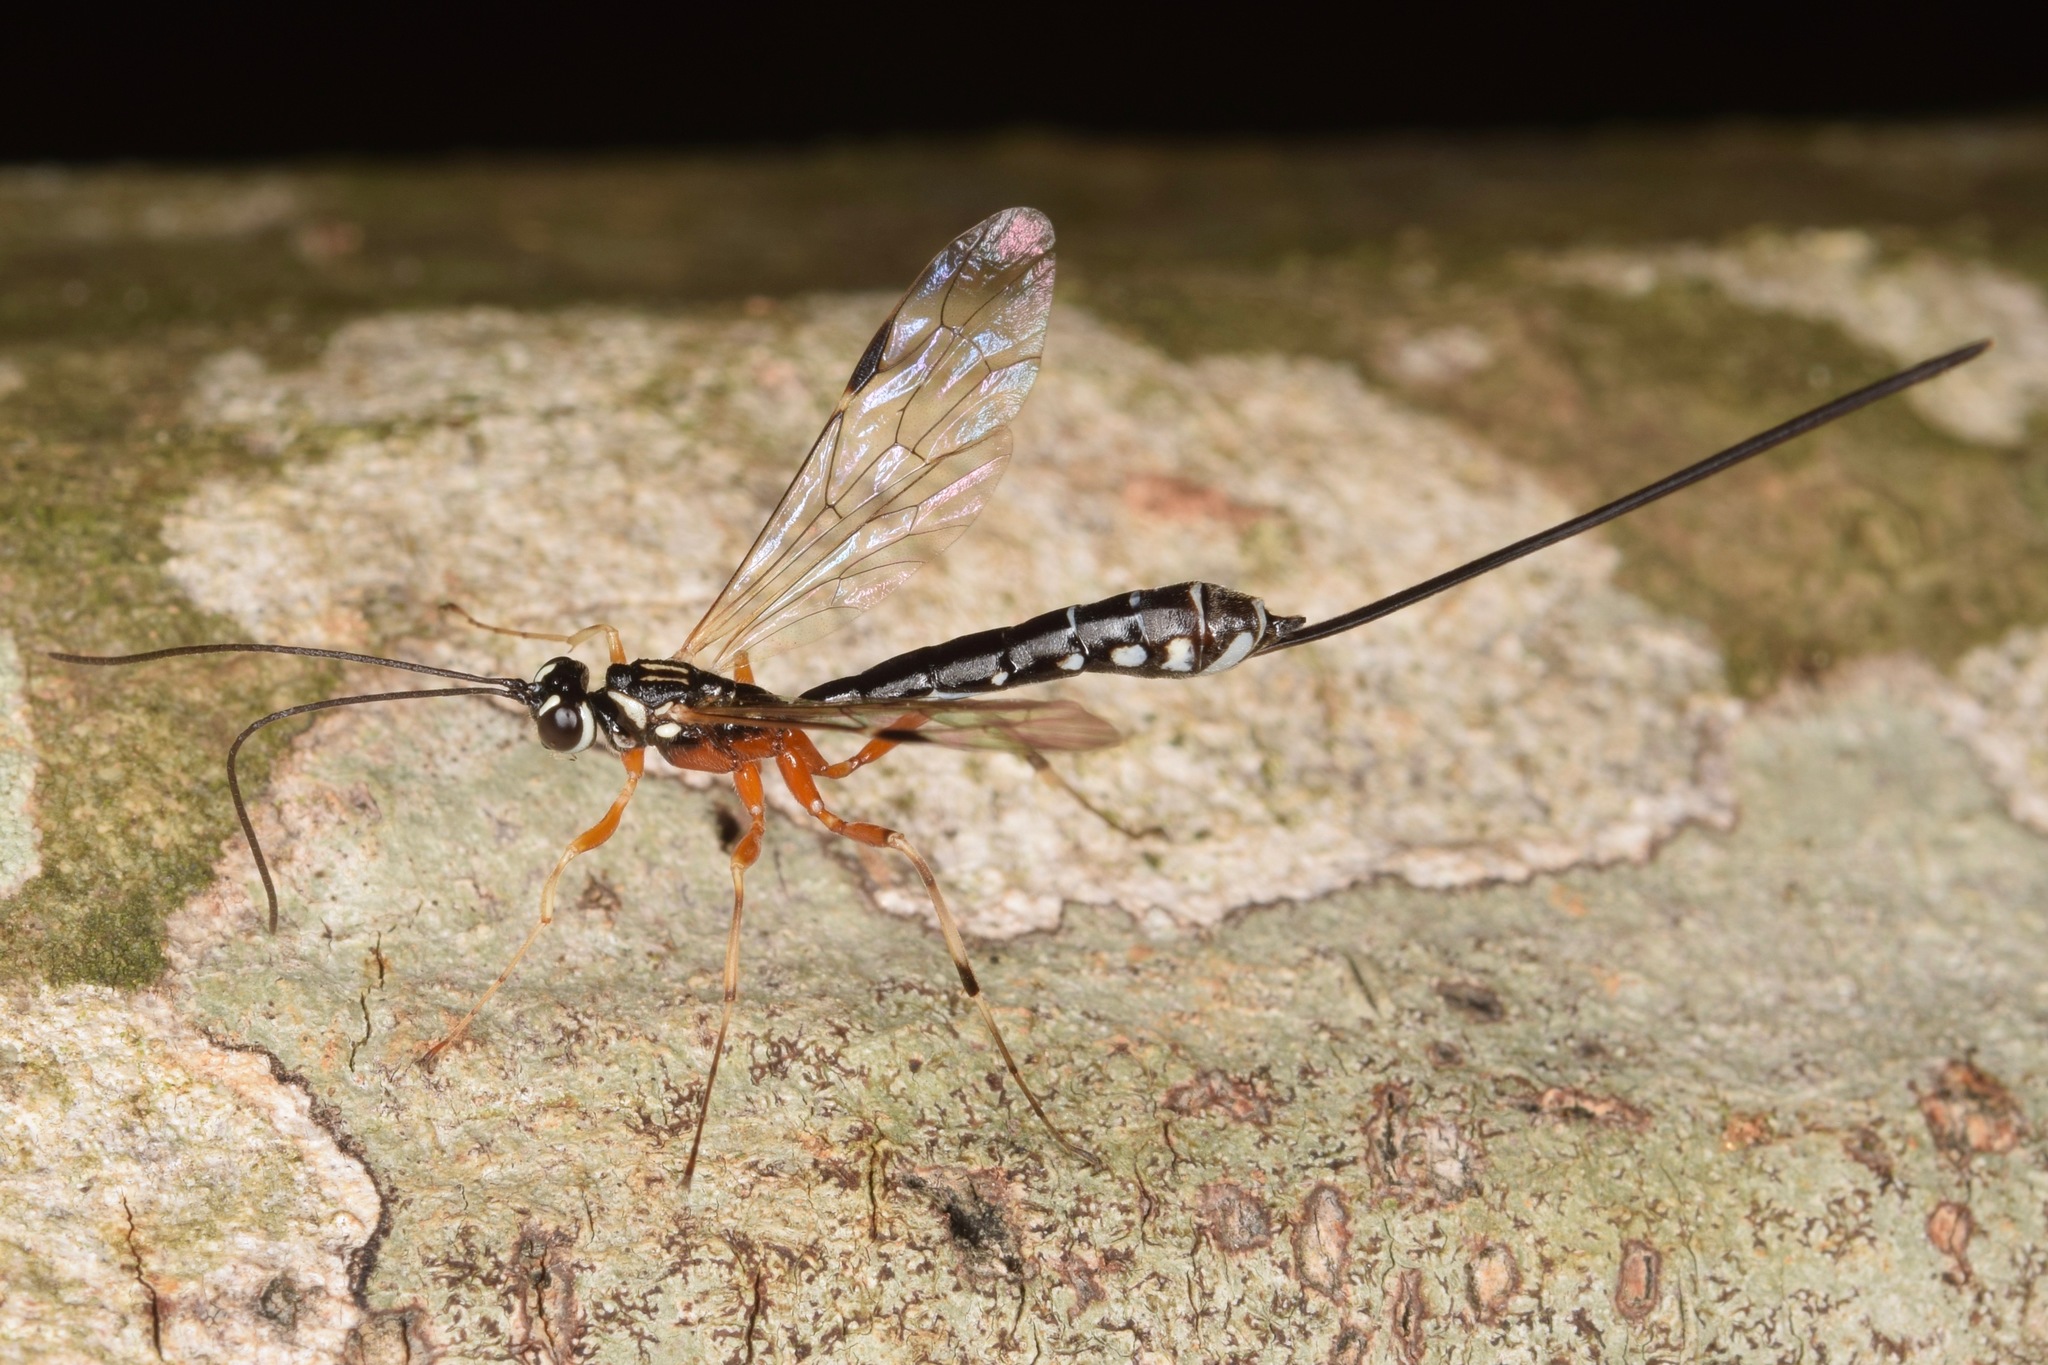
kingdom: Animalia
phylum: Arthropoda
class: Insecta
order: Hymenoptera
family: Ichneumonidae
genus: Rhyssella
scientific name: Rhyssella humida
